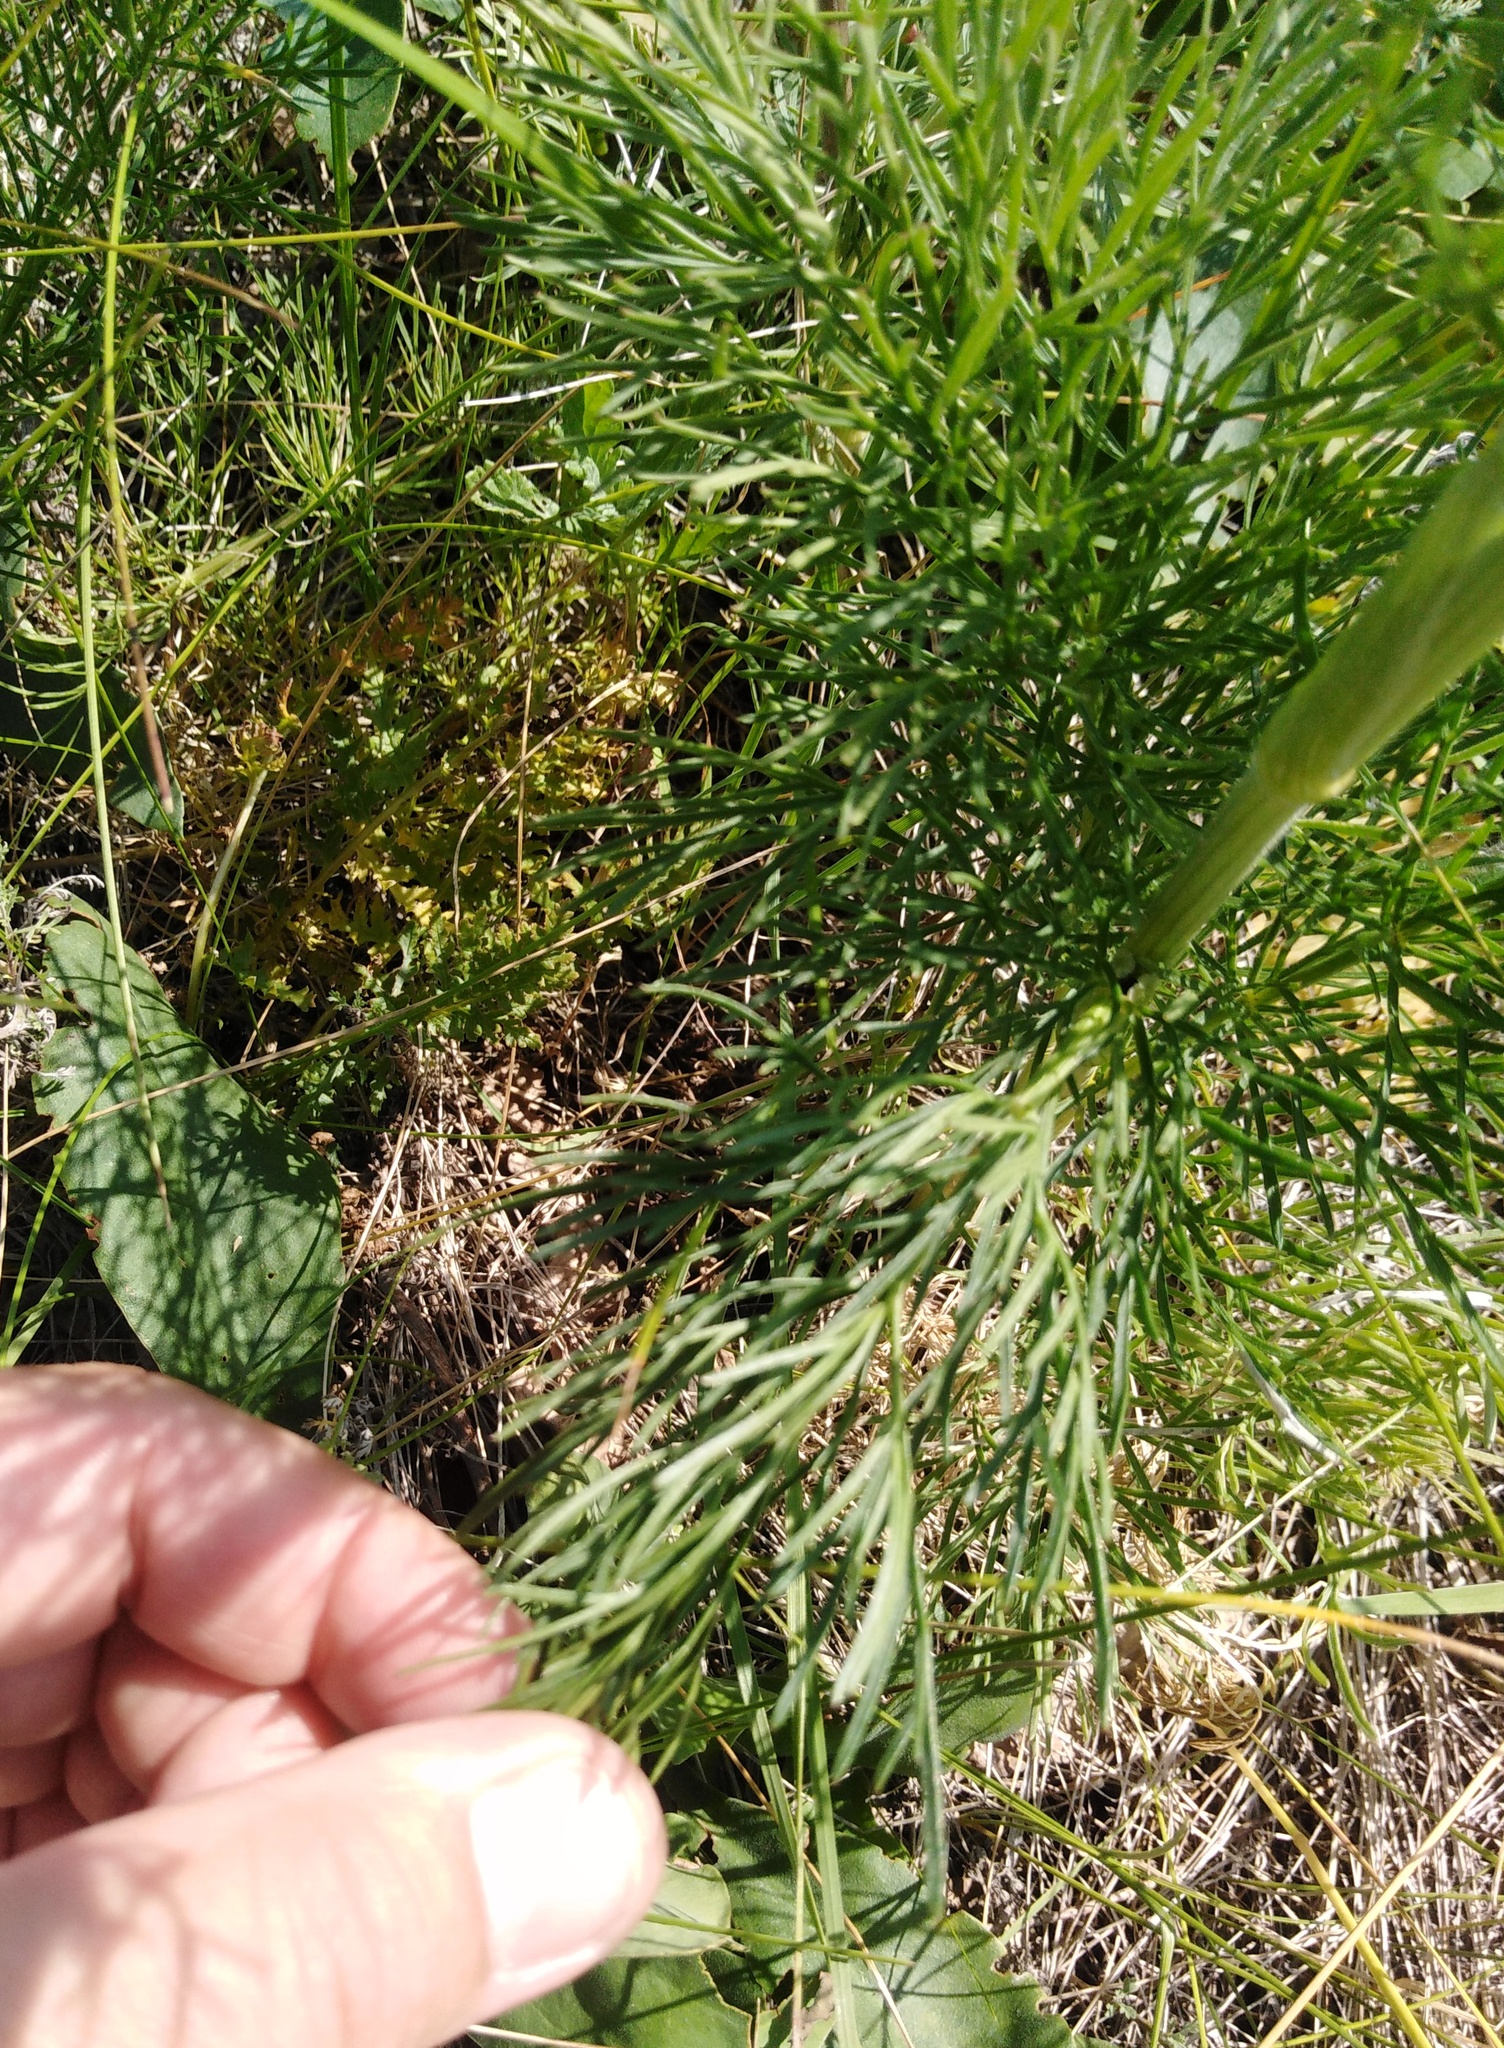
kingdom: Plantae
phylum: Tracheophyta
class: Magnoliopsida
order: Apiales
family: Apiaceae
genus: Seseli
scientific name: Seseli annuum
